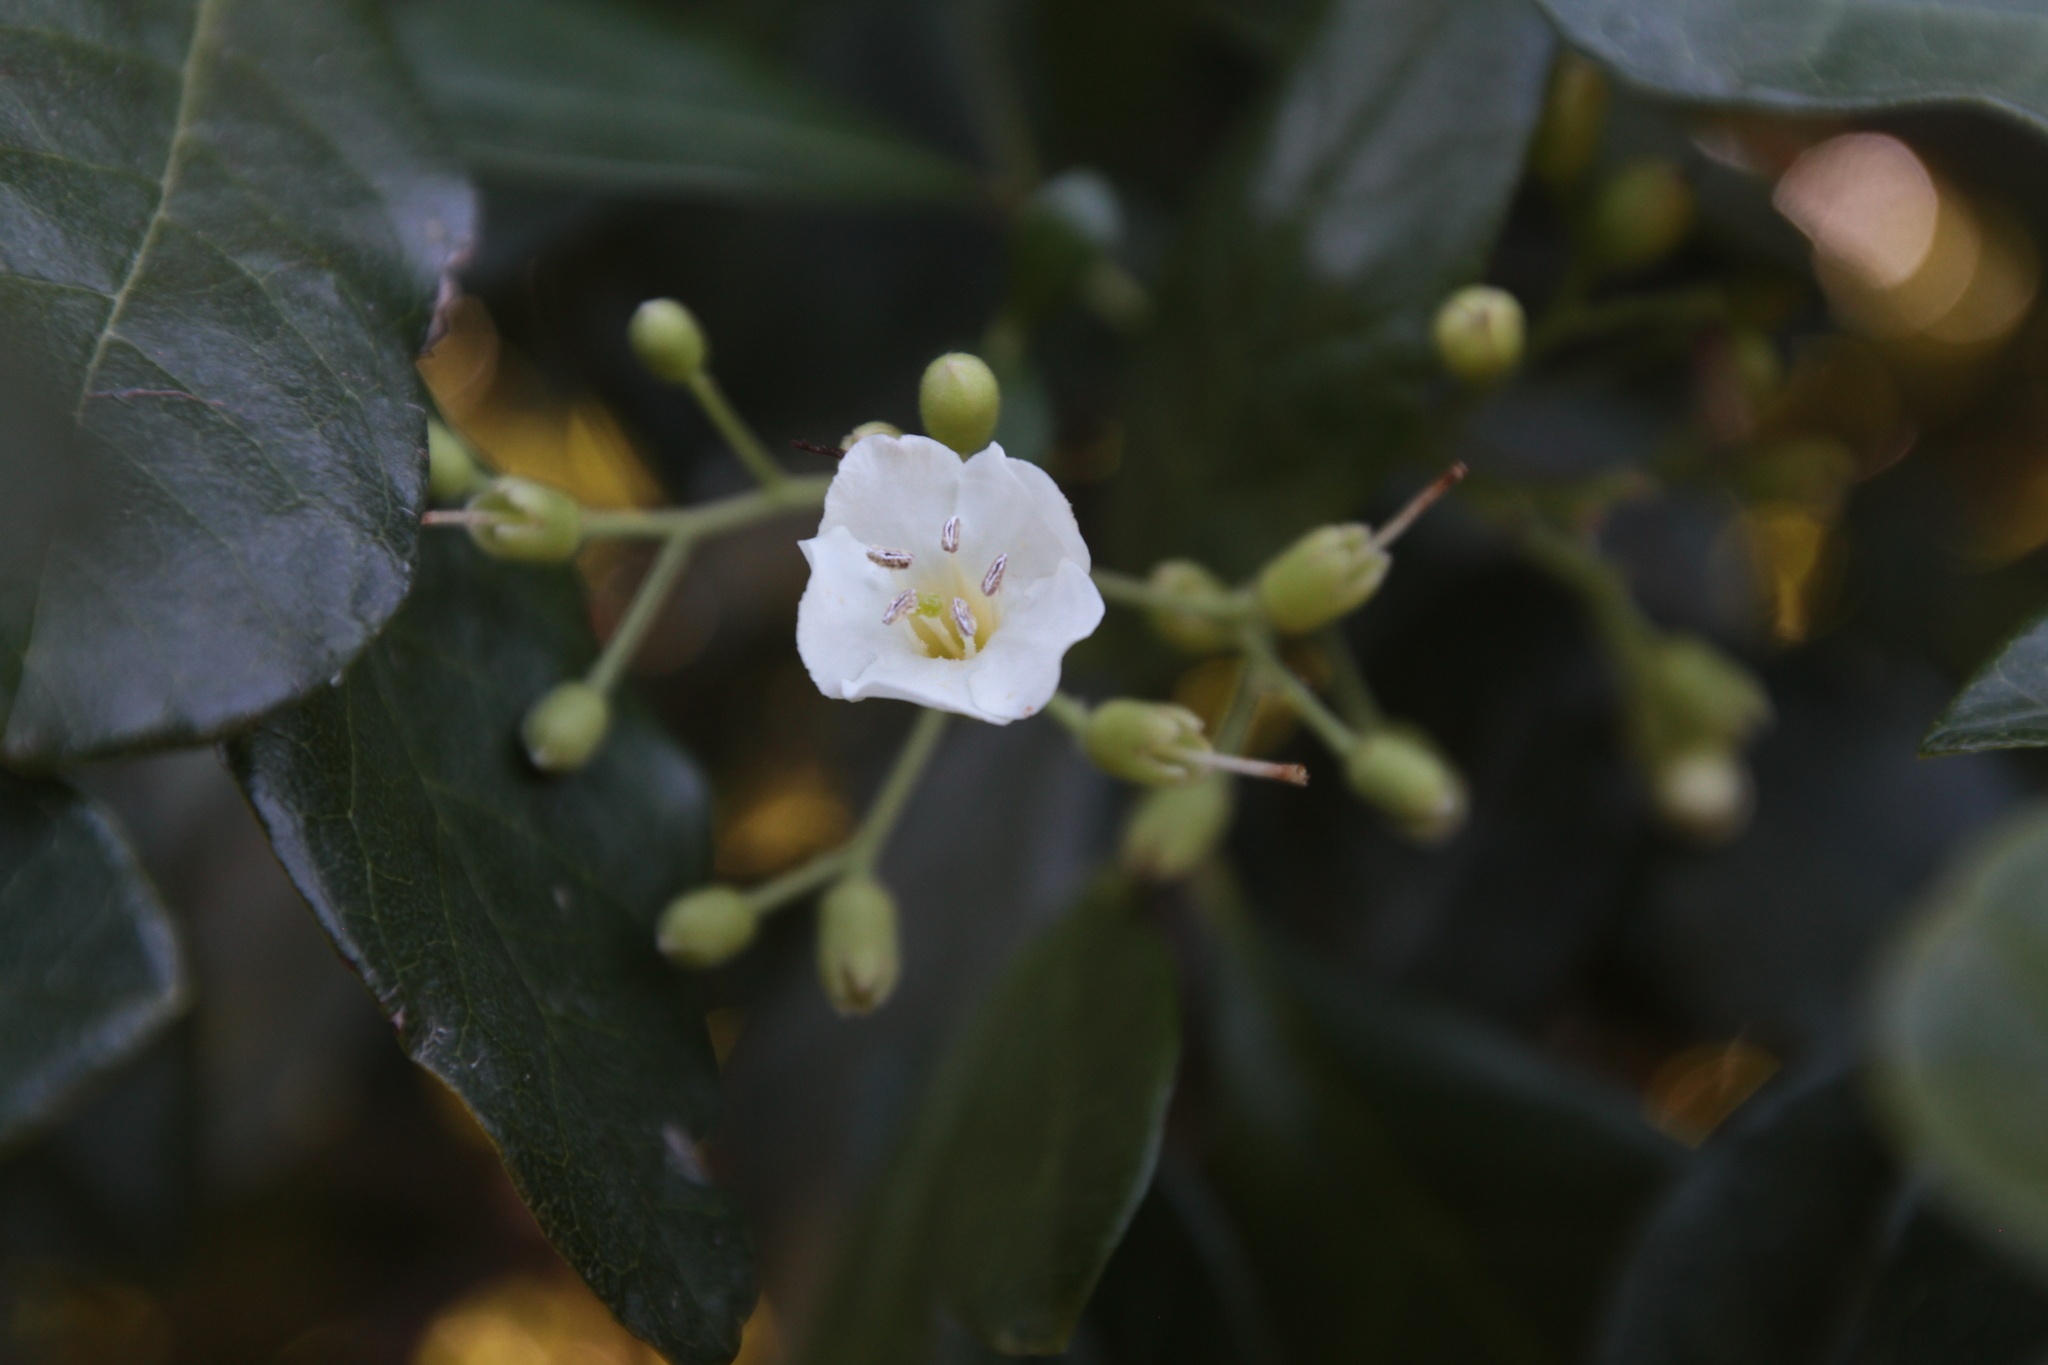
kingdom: Plantae
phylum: Tracheophyta
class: Magnoliopsida
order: Boraginales
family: Ehretiaceae
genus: Bourreria
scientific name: Bourreria succulenta
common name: Cherry
